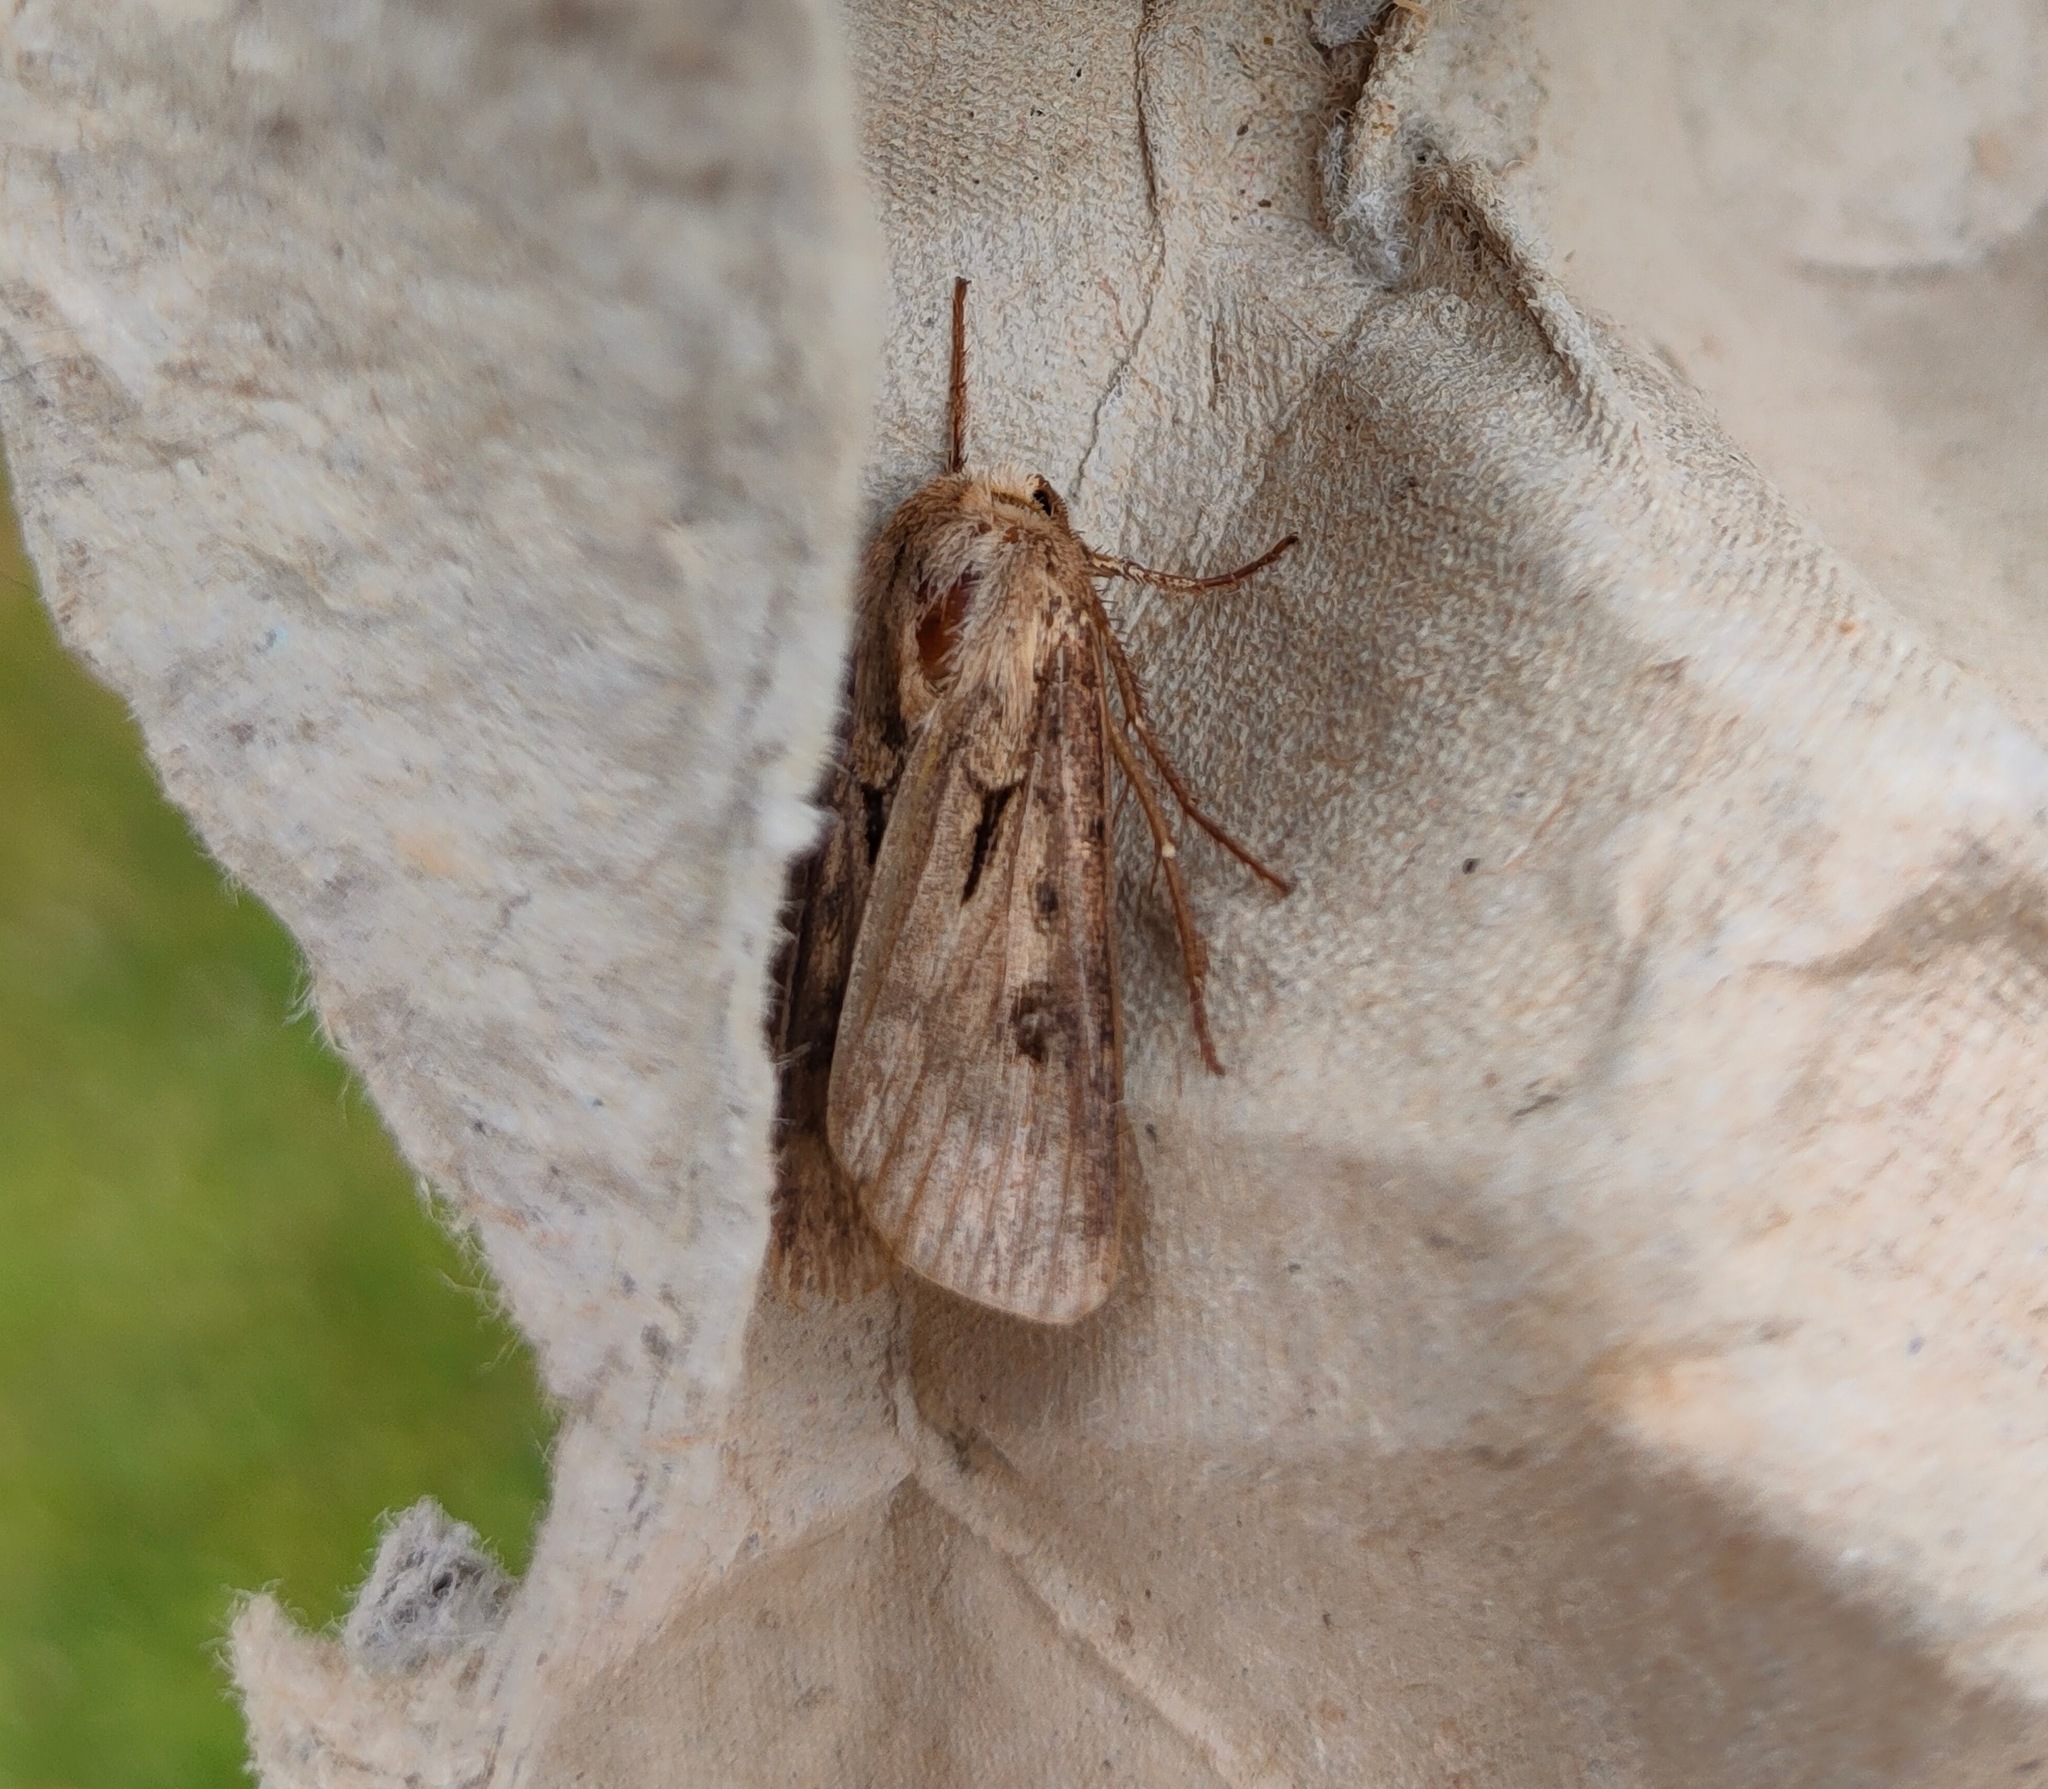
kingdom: Animalia
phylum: Arthropoda
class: Insecta
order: Lepidoptera
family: Noctuidae
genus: Agrotis
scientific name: Agrotis exclamationis
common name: Heart and dart
